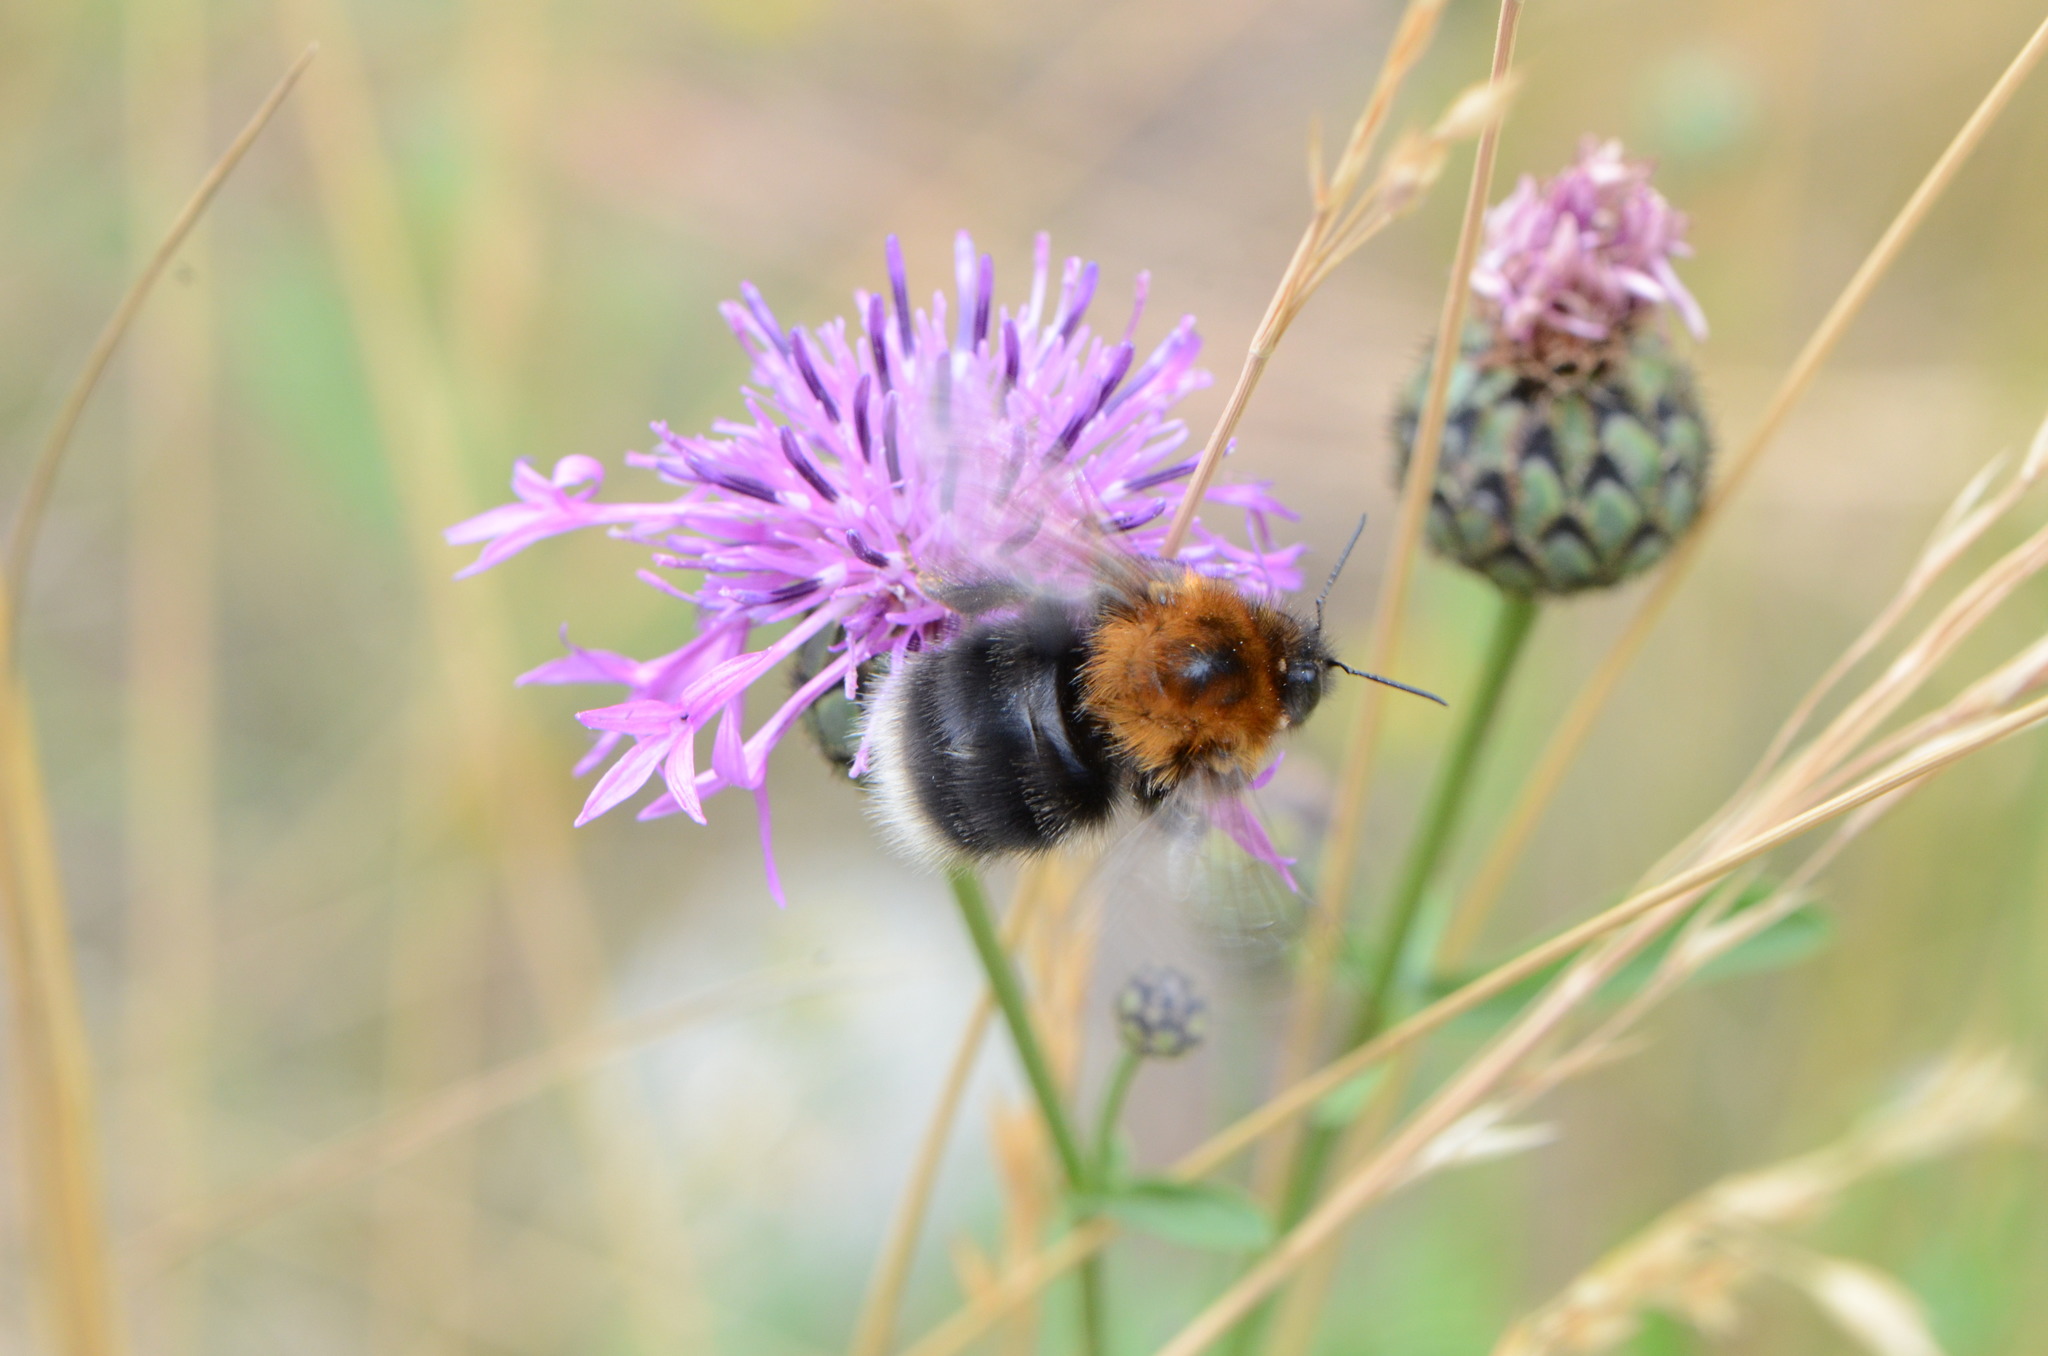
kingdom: Plantae
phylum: Tracheophyta
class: Magnoliopsida
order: Asterales
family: Asteraceae
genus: Centaurea
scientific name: Centaurea scabiosa
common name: Greater knapweed
